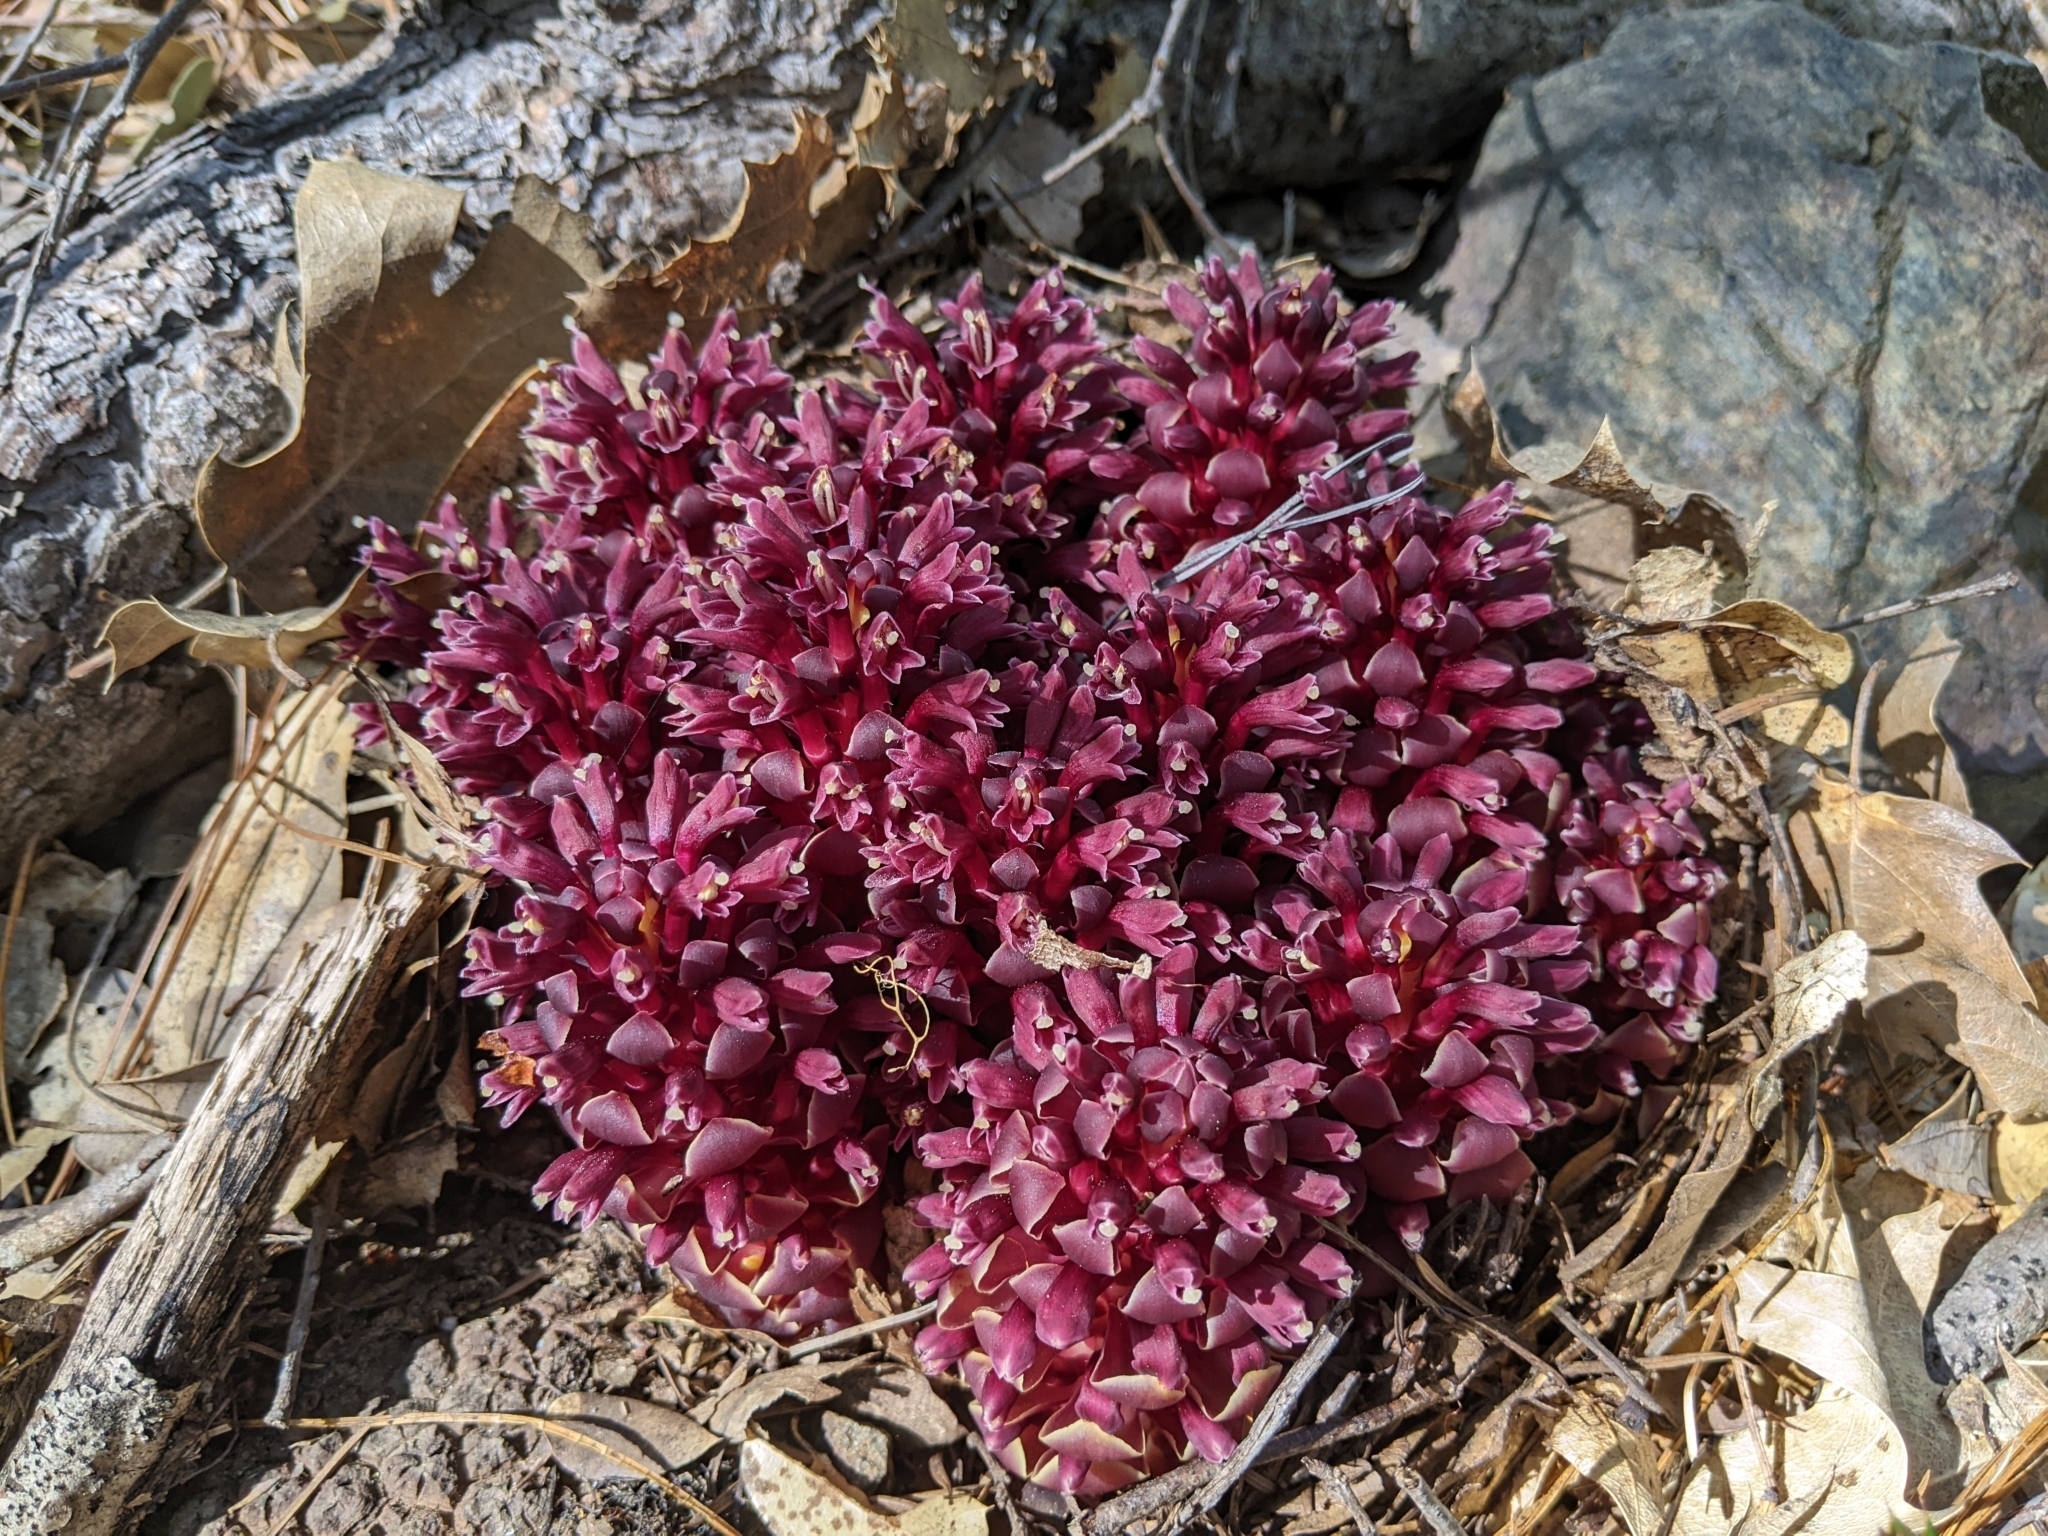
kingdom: Plantae
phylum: Tracheophyta
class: Magnoliopsida
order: Lamiales
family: Orobanchaceae
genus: Kopsiopsis
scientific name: Kopsiopsis strobilacea
